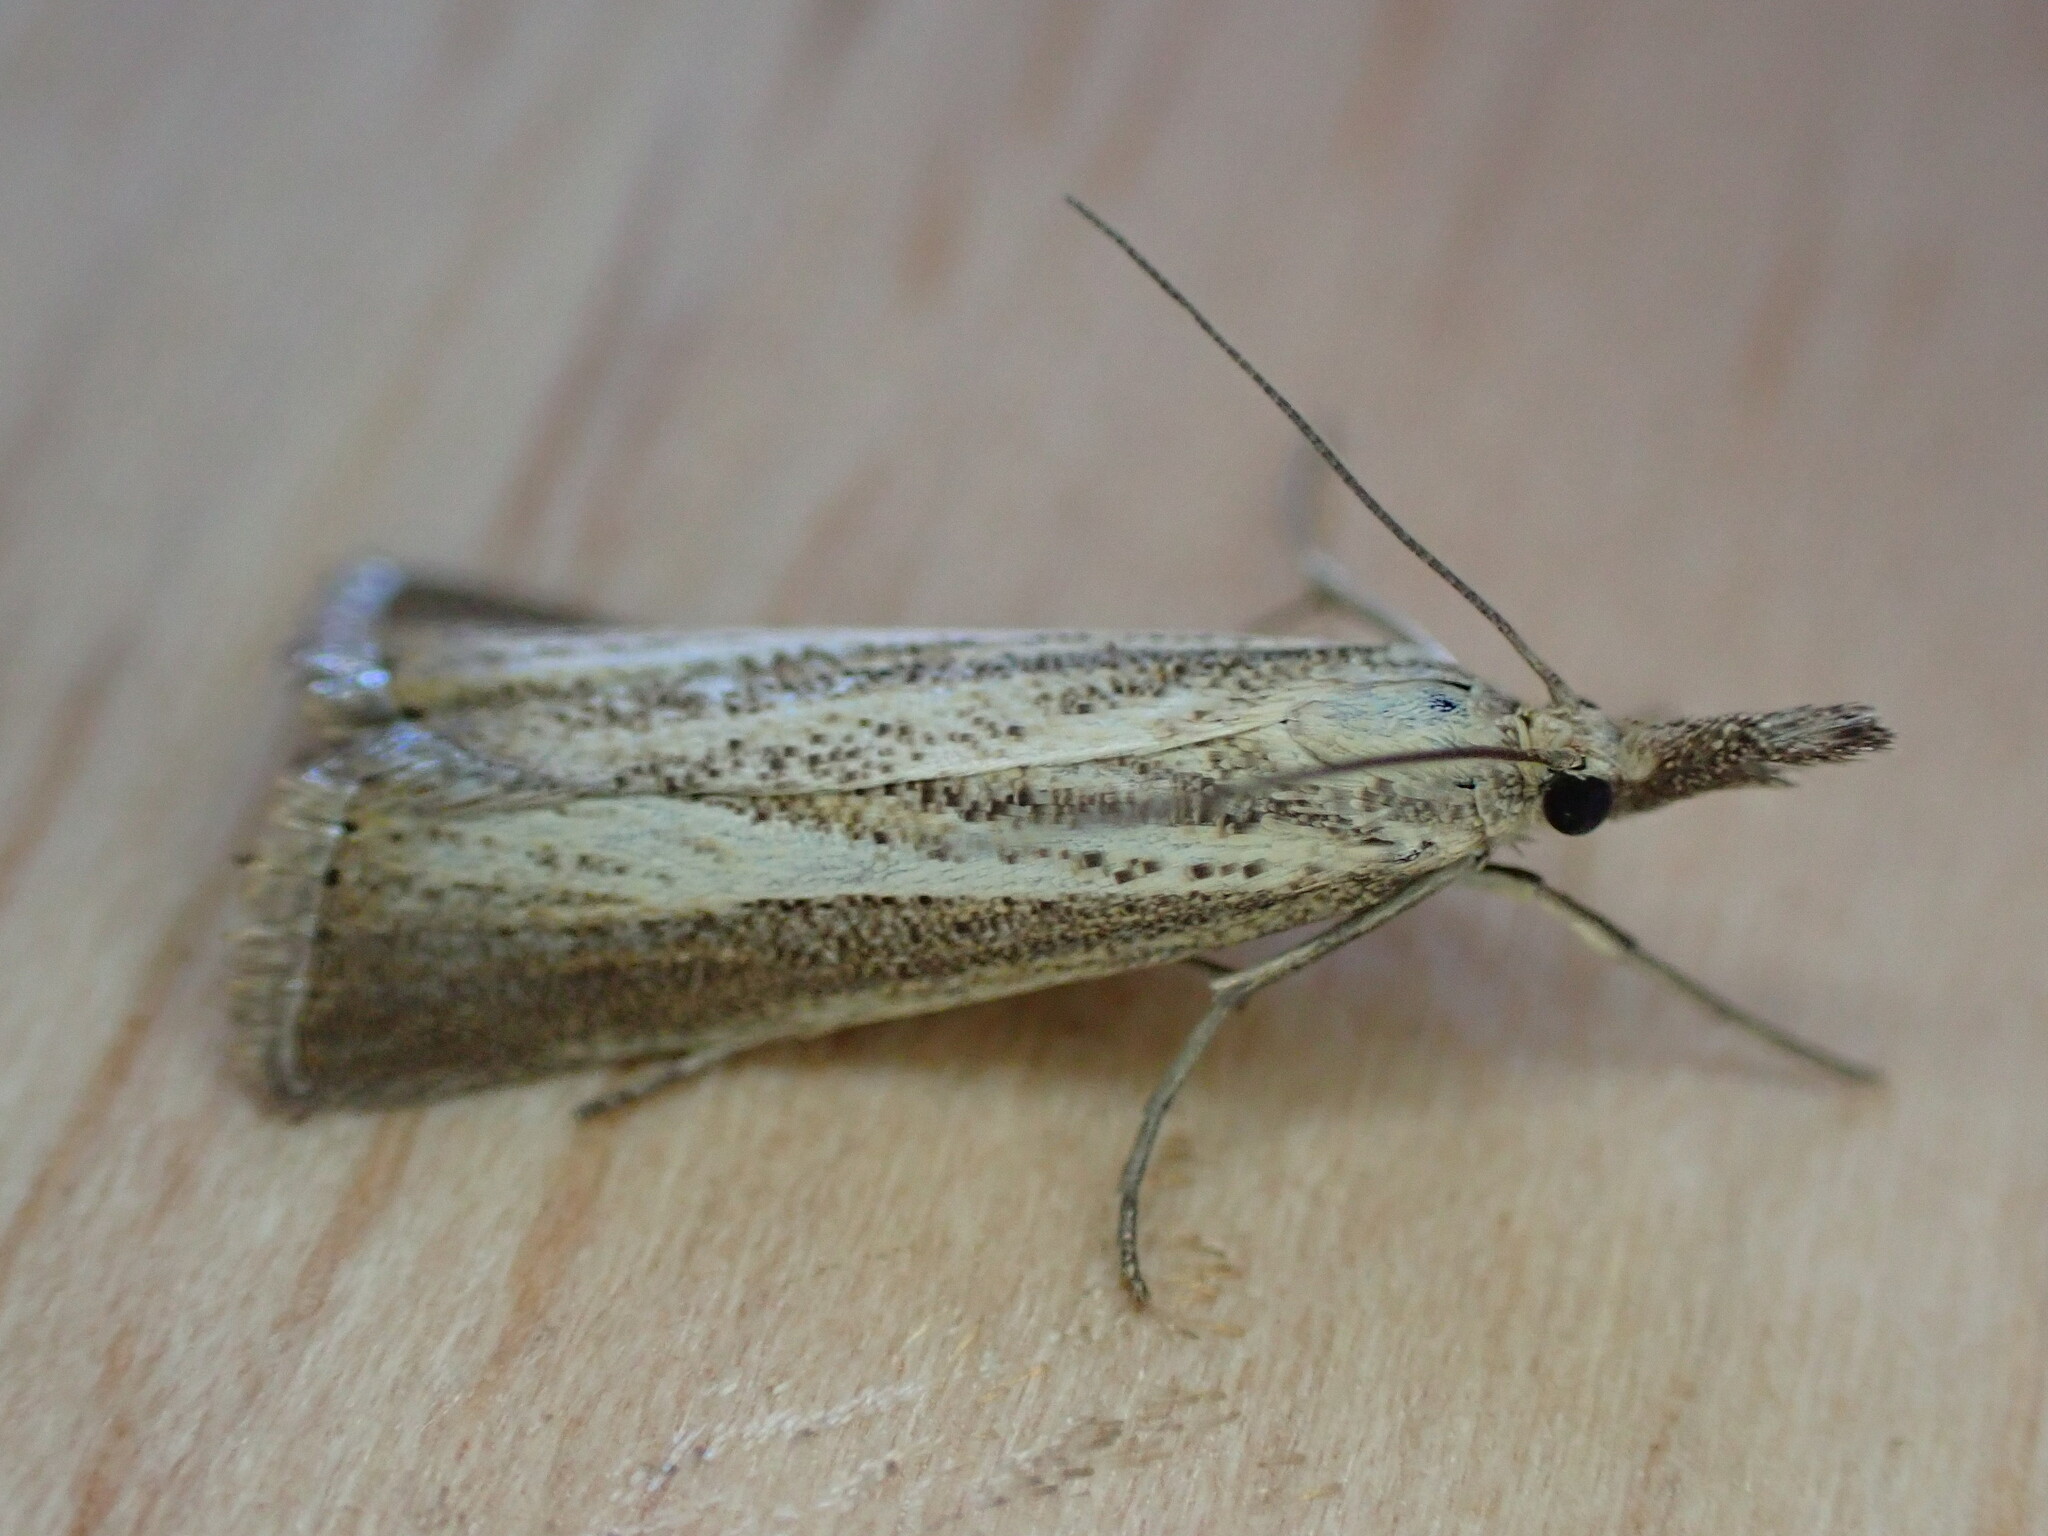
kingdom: Animalia
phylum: Arthropoda
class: Insecta
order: Lepidoptera
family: Crambidae
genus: Agriphila
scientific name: Agriphila straminella
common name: Straw grass-veneer
